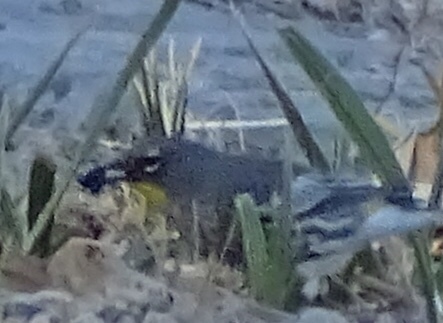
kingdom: Animalia
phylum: Chordata
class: Aves
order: Passeriformes
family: Parulidae
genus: Setophaga
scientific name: Setophaga auduboni
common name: Audubon's warbler
